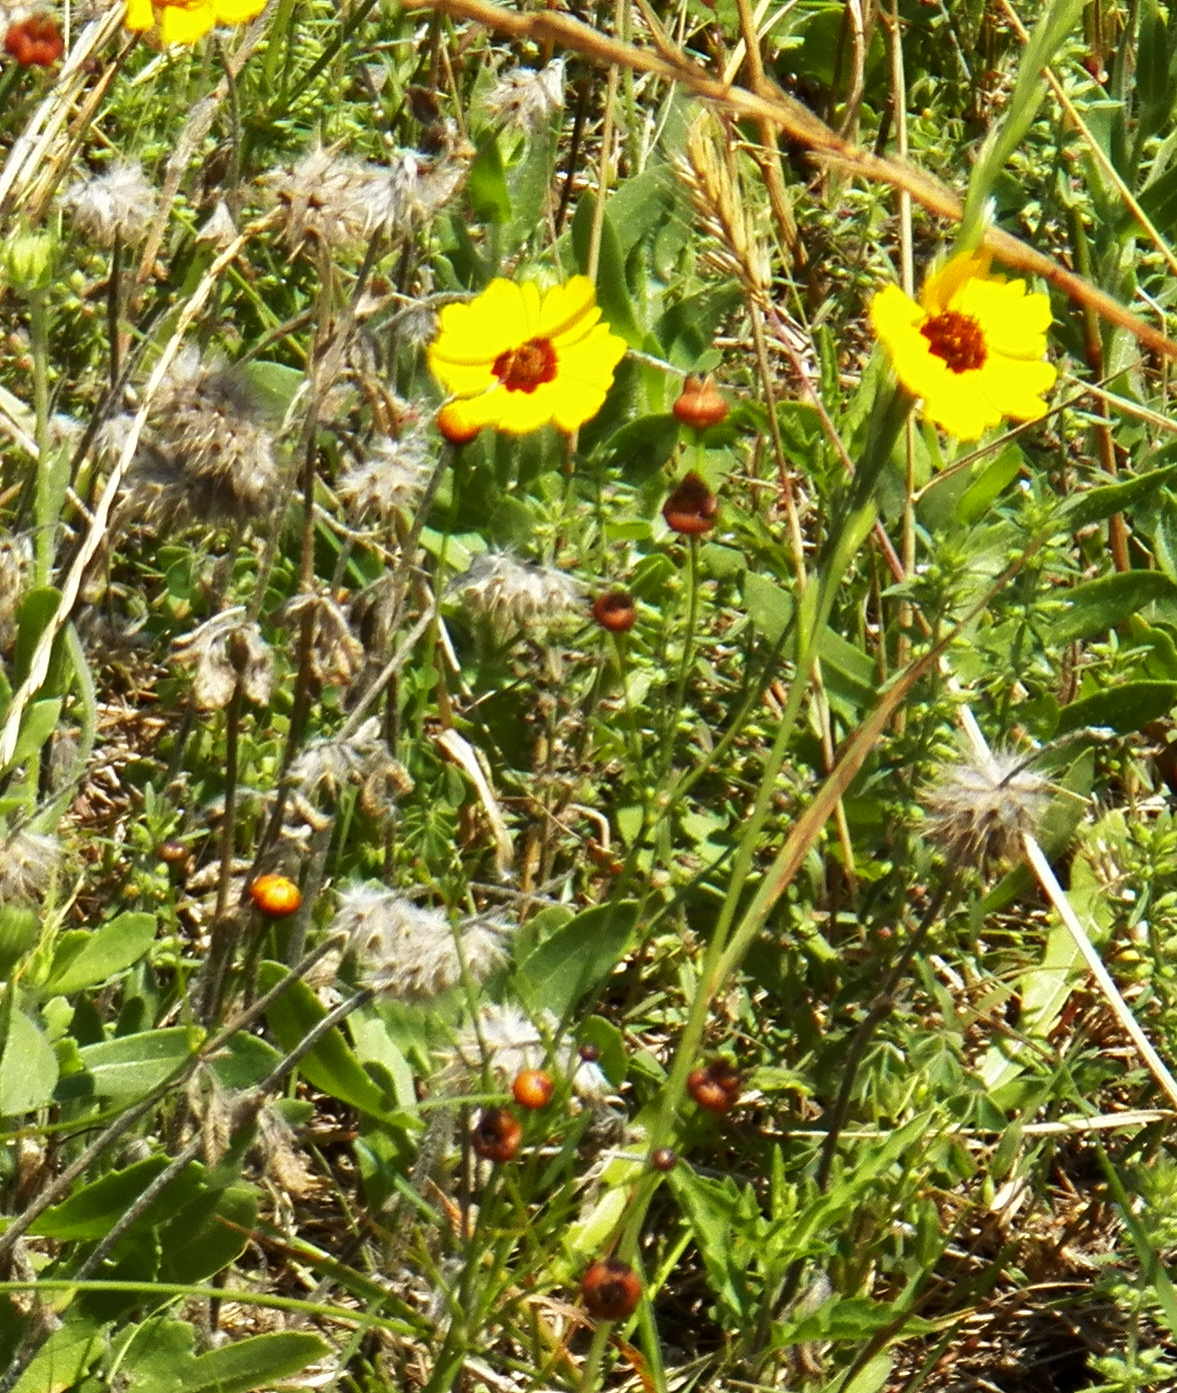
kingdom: Plantae
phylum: Tracheophyta
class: Magnoliopsida
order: Asterales
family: Asteraceae
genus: Coreopsis
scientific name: Coreopsis tinctoria
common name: Garden tickseed
